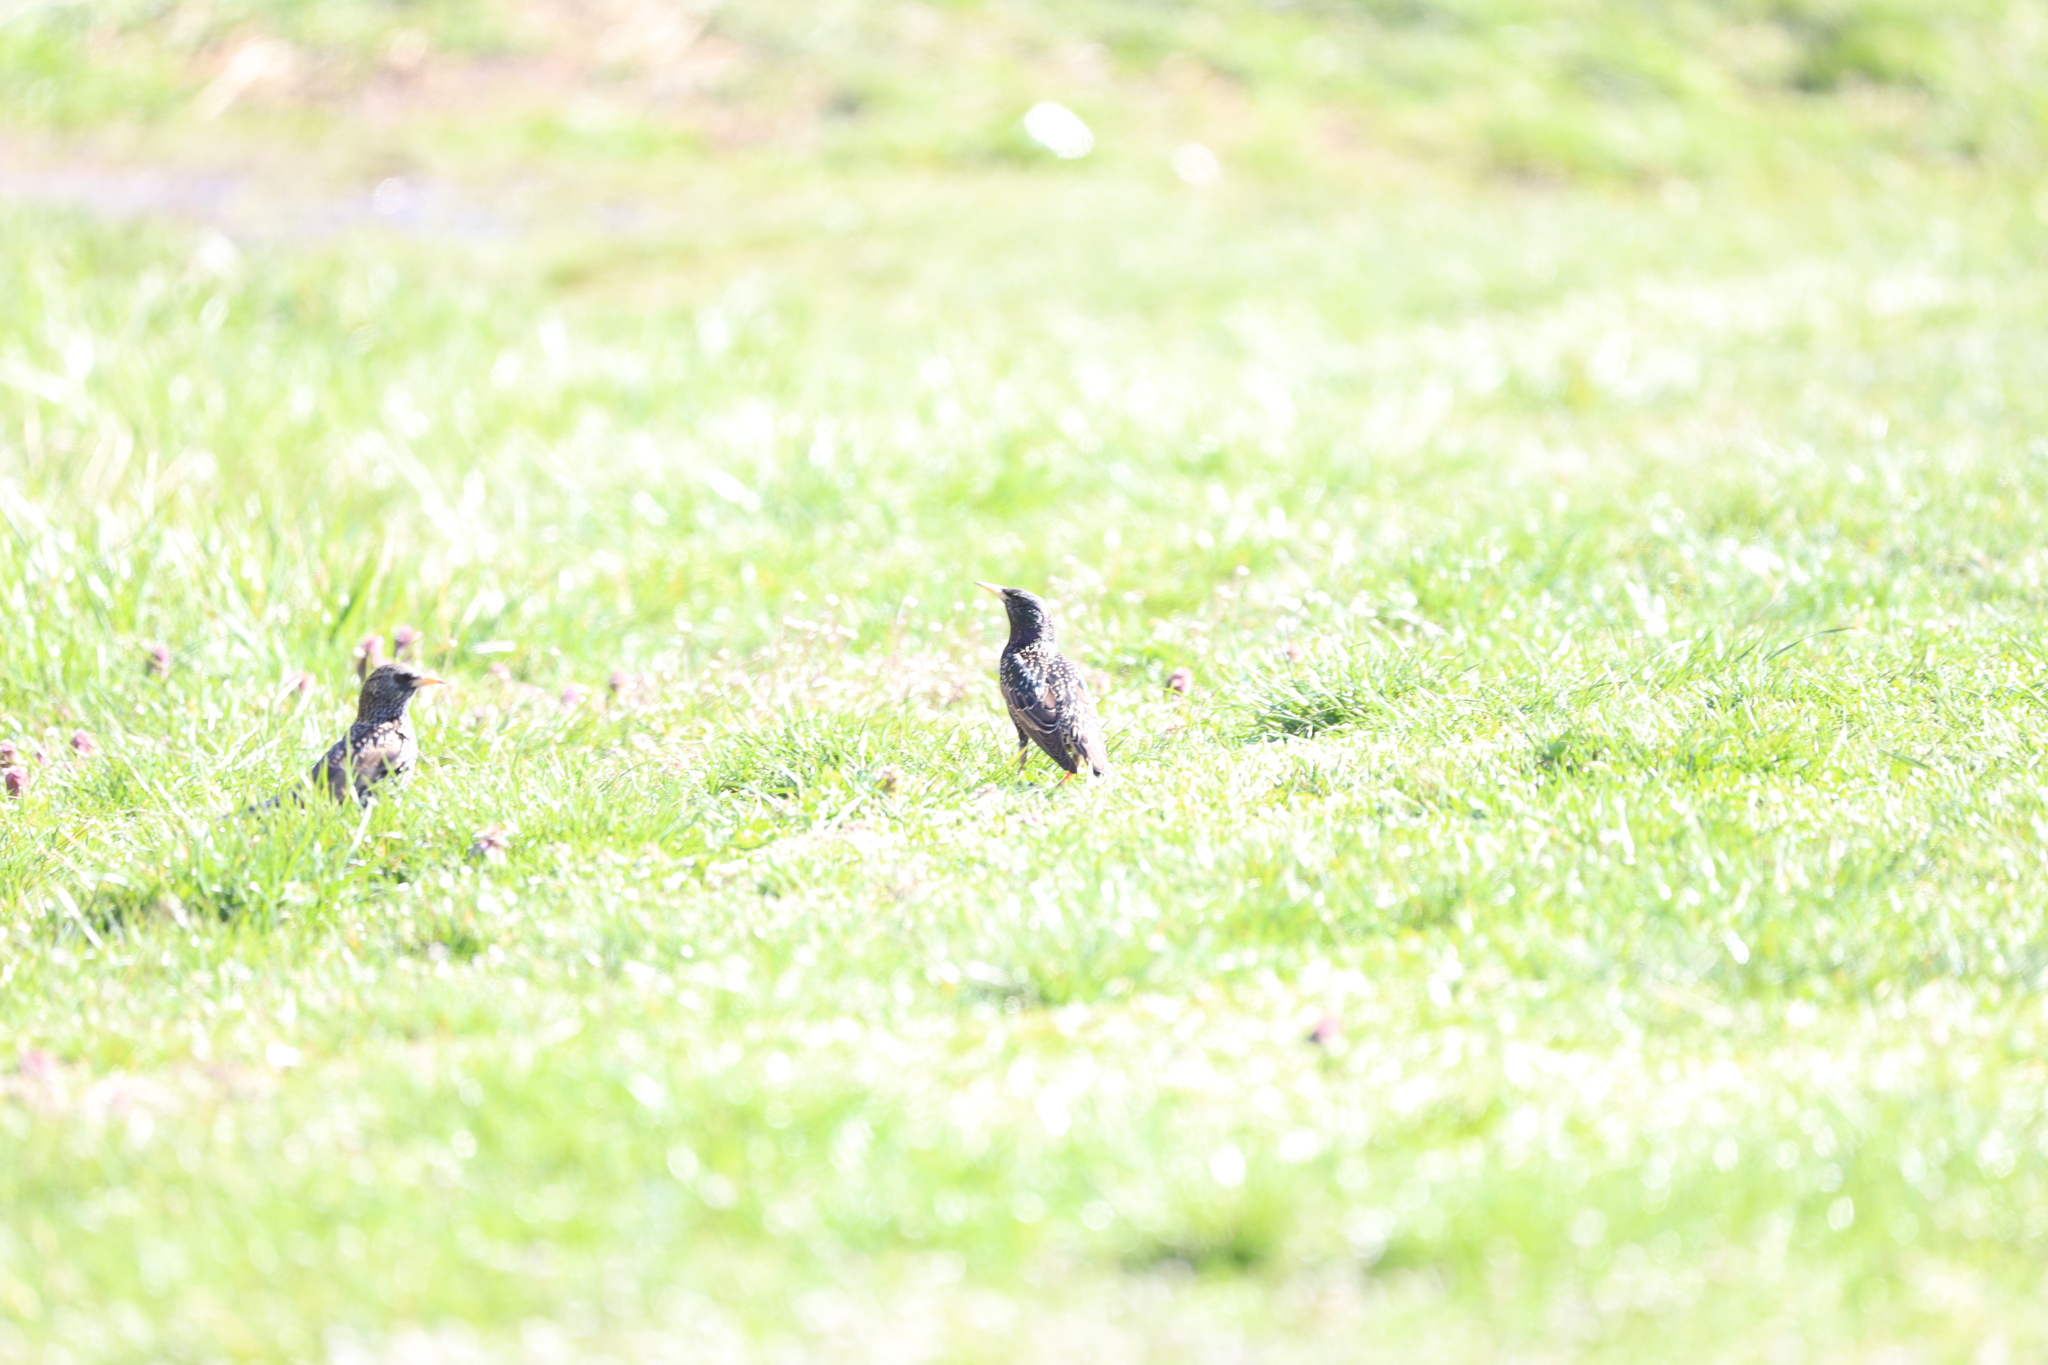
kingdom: Animalia
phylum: Chordata
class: Aves
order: Passeriformes
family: Sturnidae
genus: Sturnus
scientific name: Sturnus vulgaris
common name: Common starling
